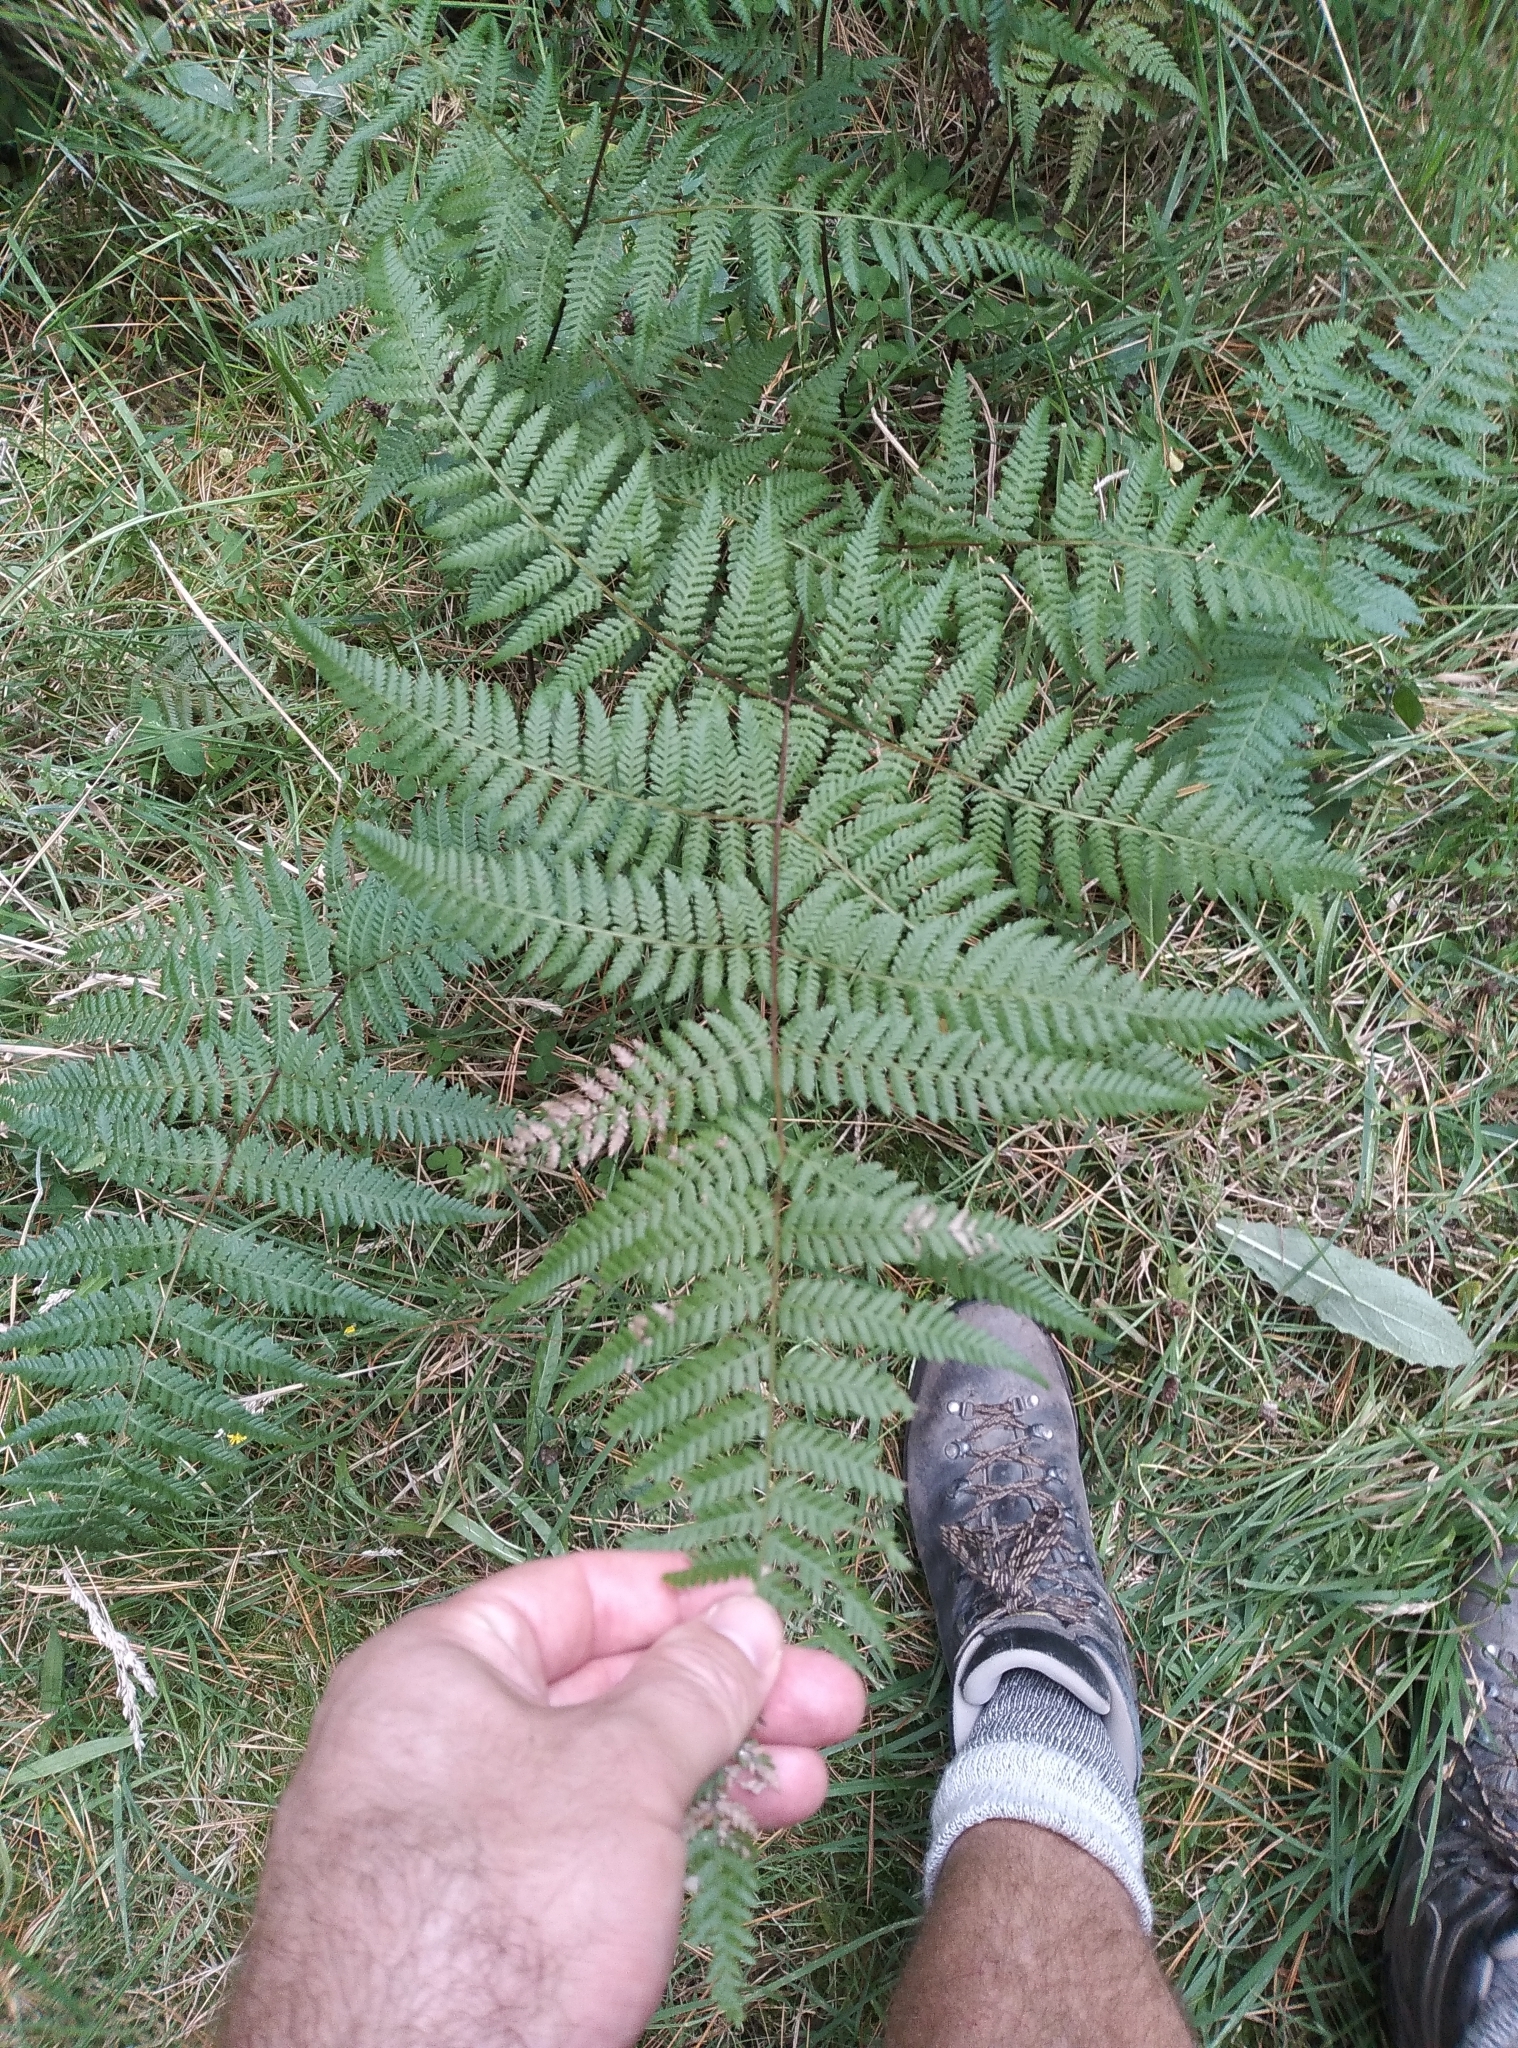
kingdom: Plantae
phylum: Tracheophyta
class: Polypodiopsida
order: Polypodiales
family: Dennstaedtiaceae
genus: Hypolepis
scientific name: Hypolepis ambigua
